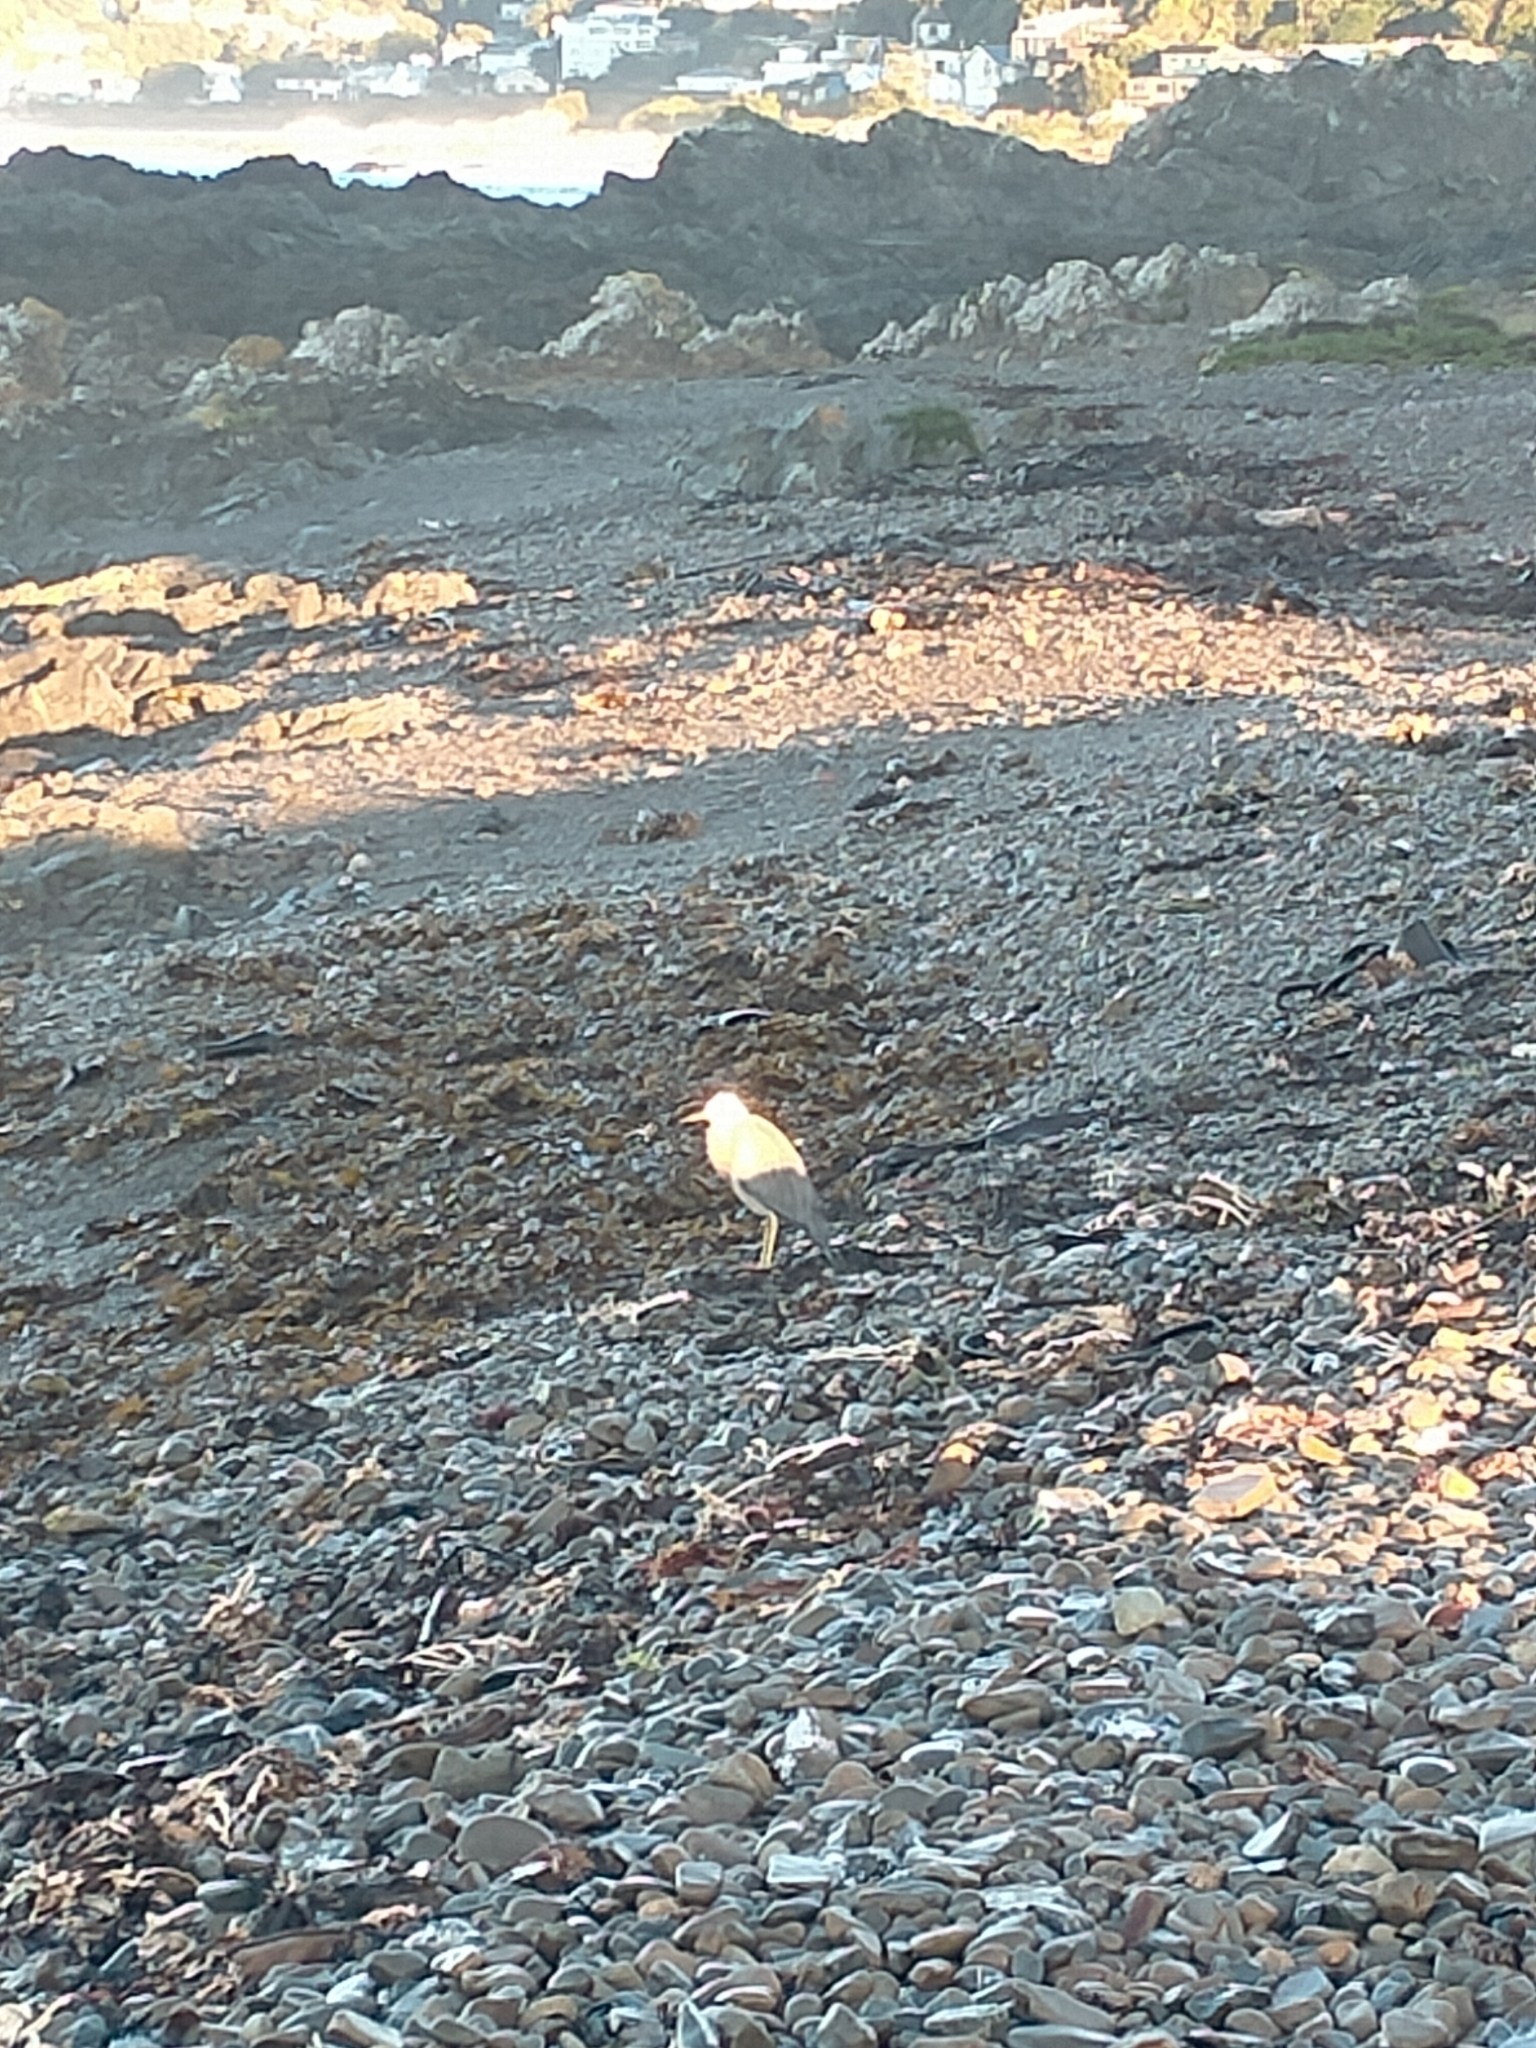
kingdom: Animalia
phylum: Chordata
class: Aves
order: Pelecaniformes
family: Ardeidae
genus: Egretta
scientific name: Egretta novaehollandiae
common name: White-faced heron
